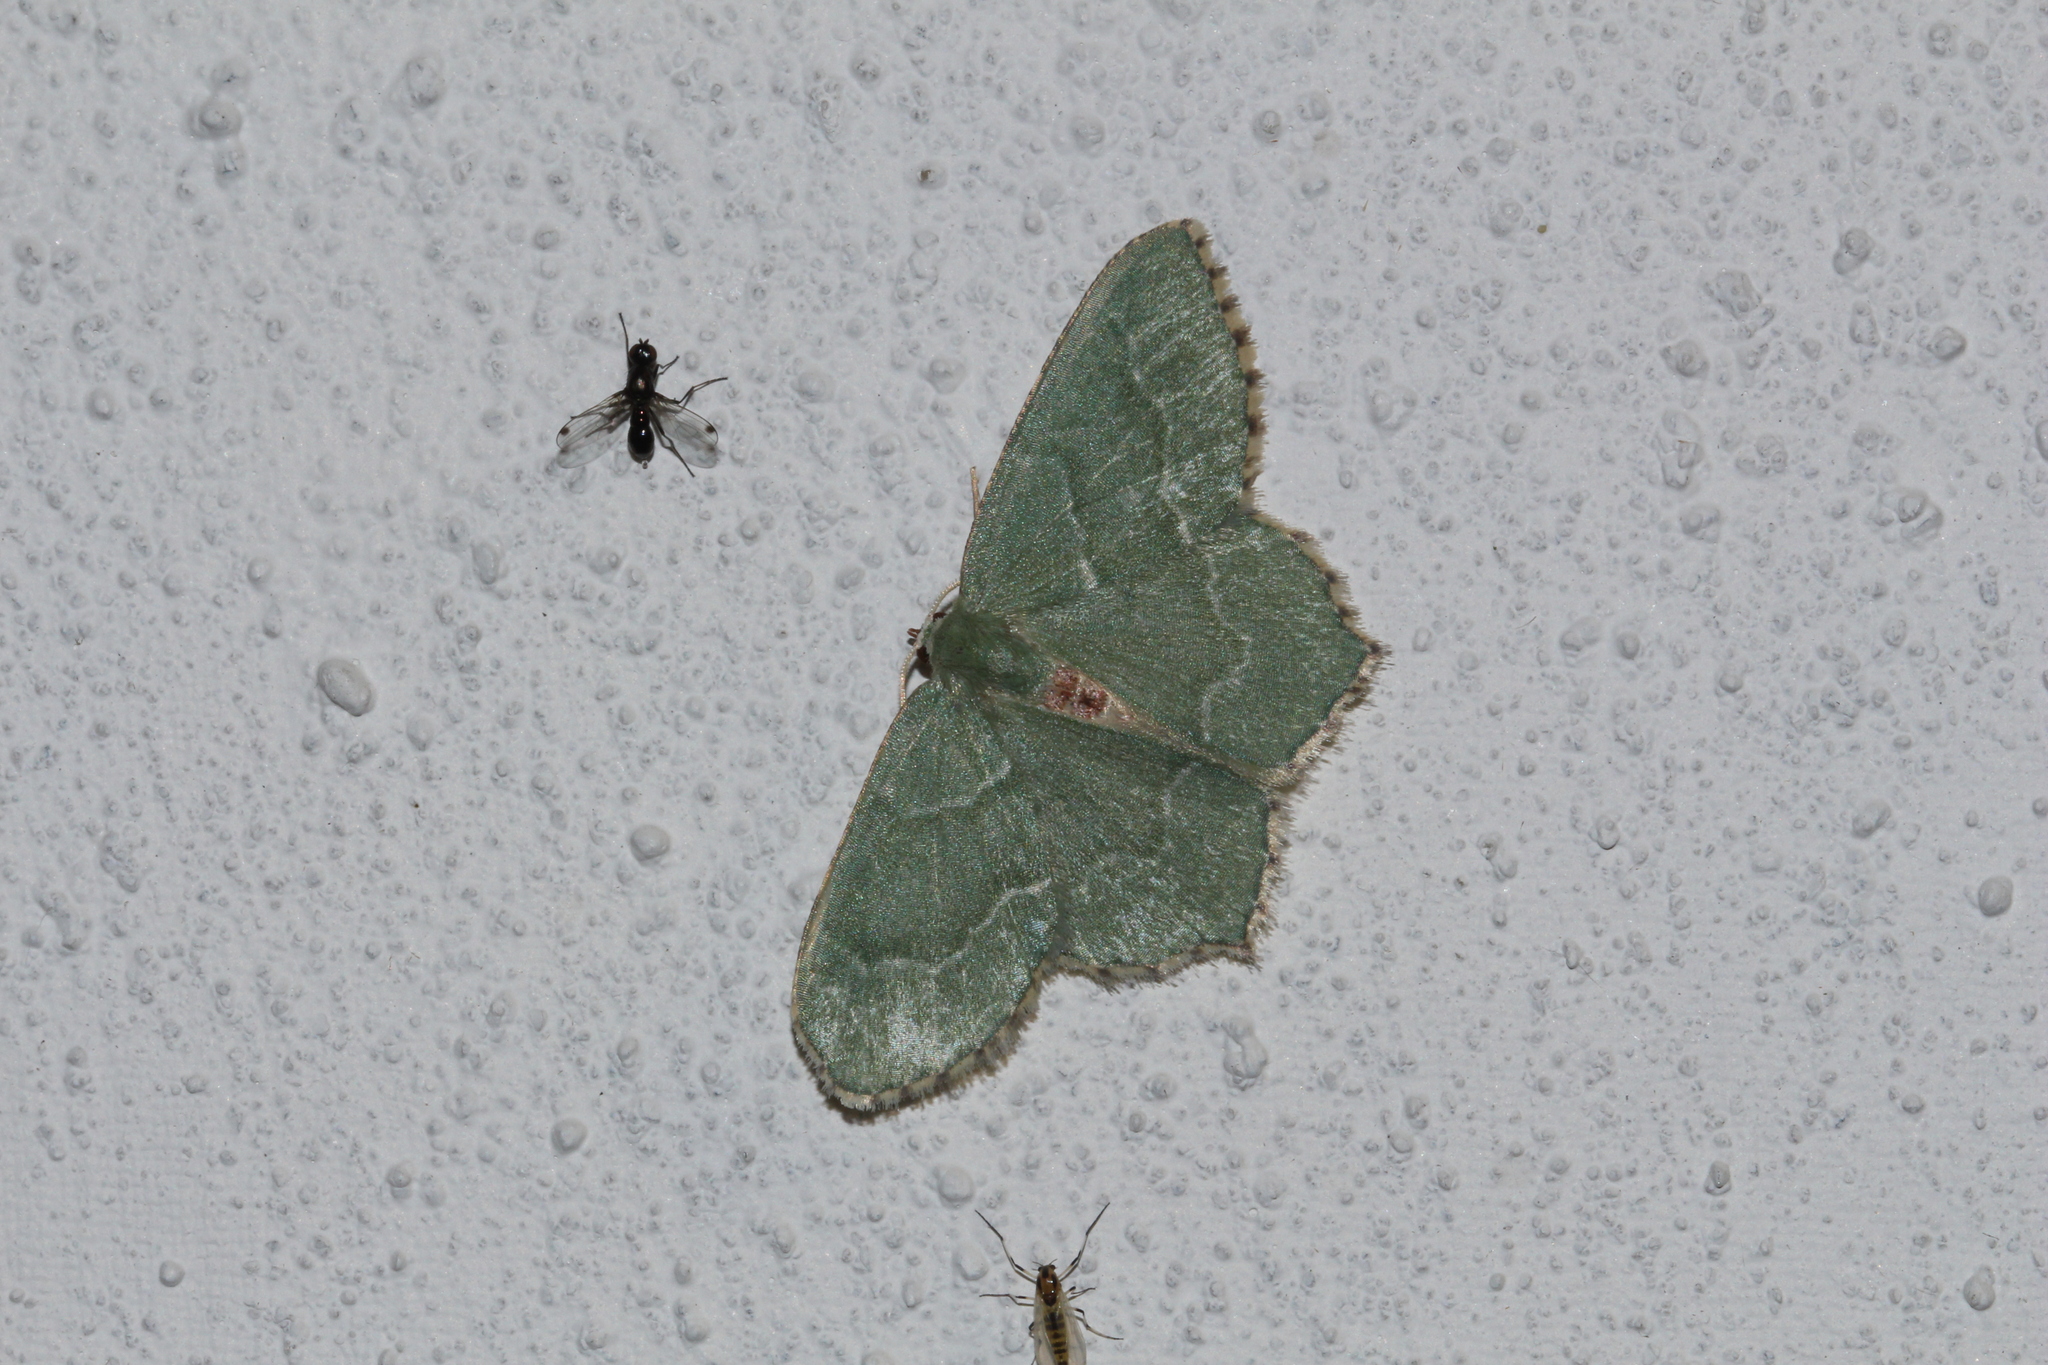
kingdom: Animalia
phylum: Arthropoda
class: Insecta
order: Lepidoptera
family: Geometridae
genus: Hemithea
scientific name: Hemithea aestivaria
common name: Common emerald
